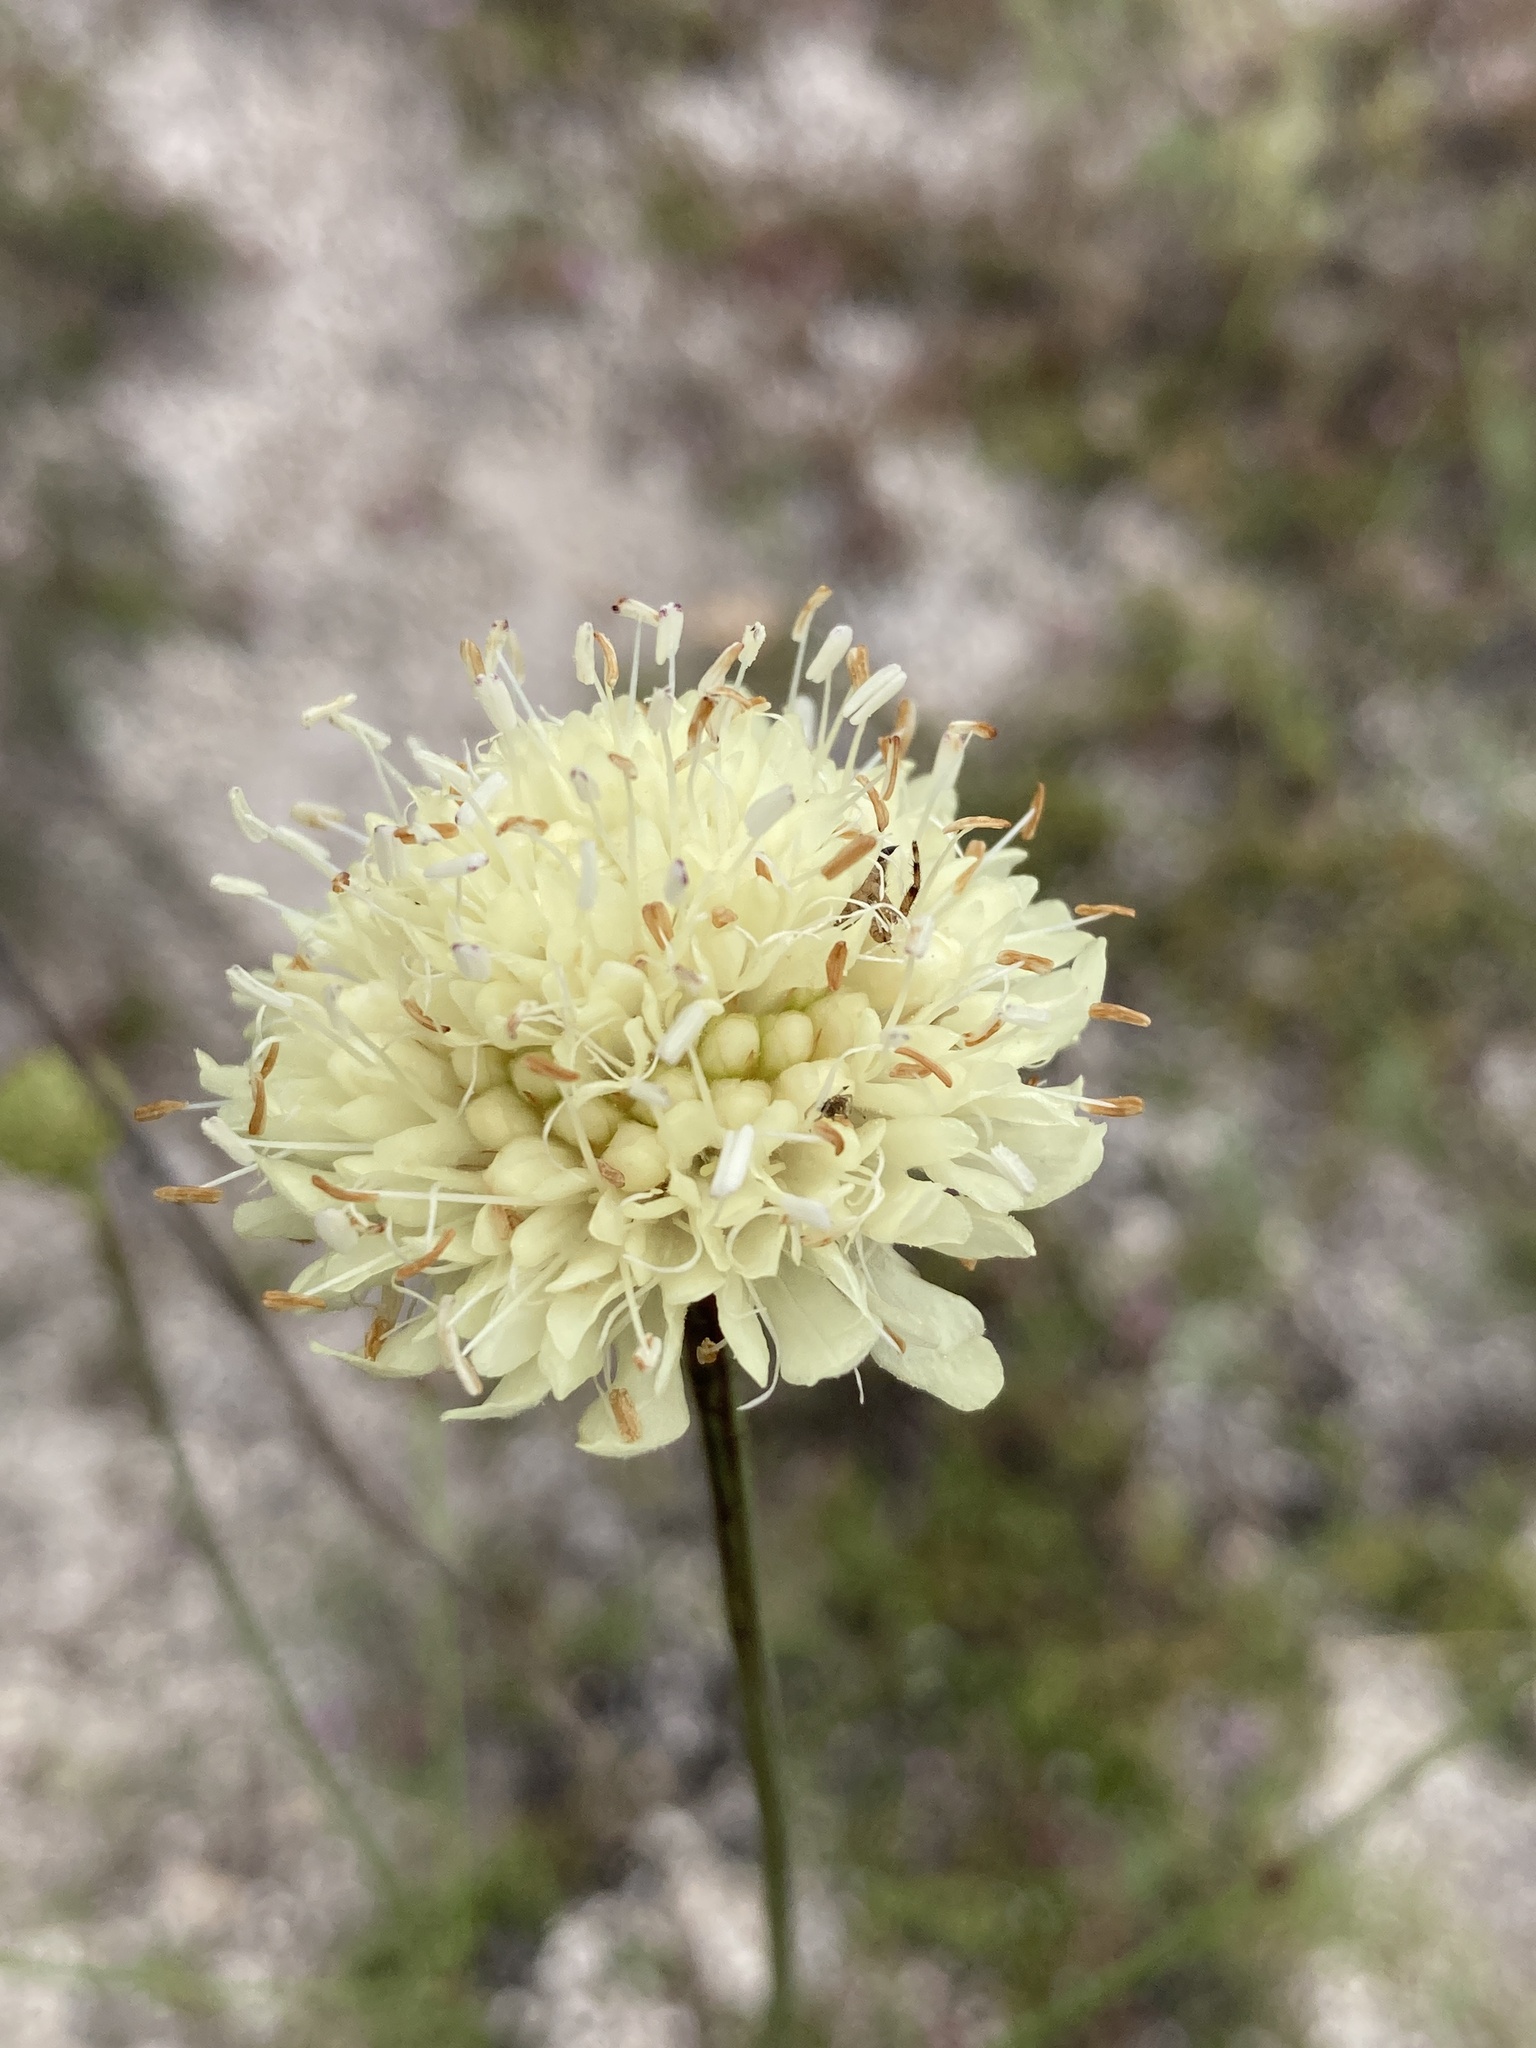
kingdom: Plantae
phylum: Tracheophyta
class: Magnoliopsida
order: Dipsacales
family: Caprifoliaceae
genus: Cephalaria
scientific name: Cephalaria uralensis
